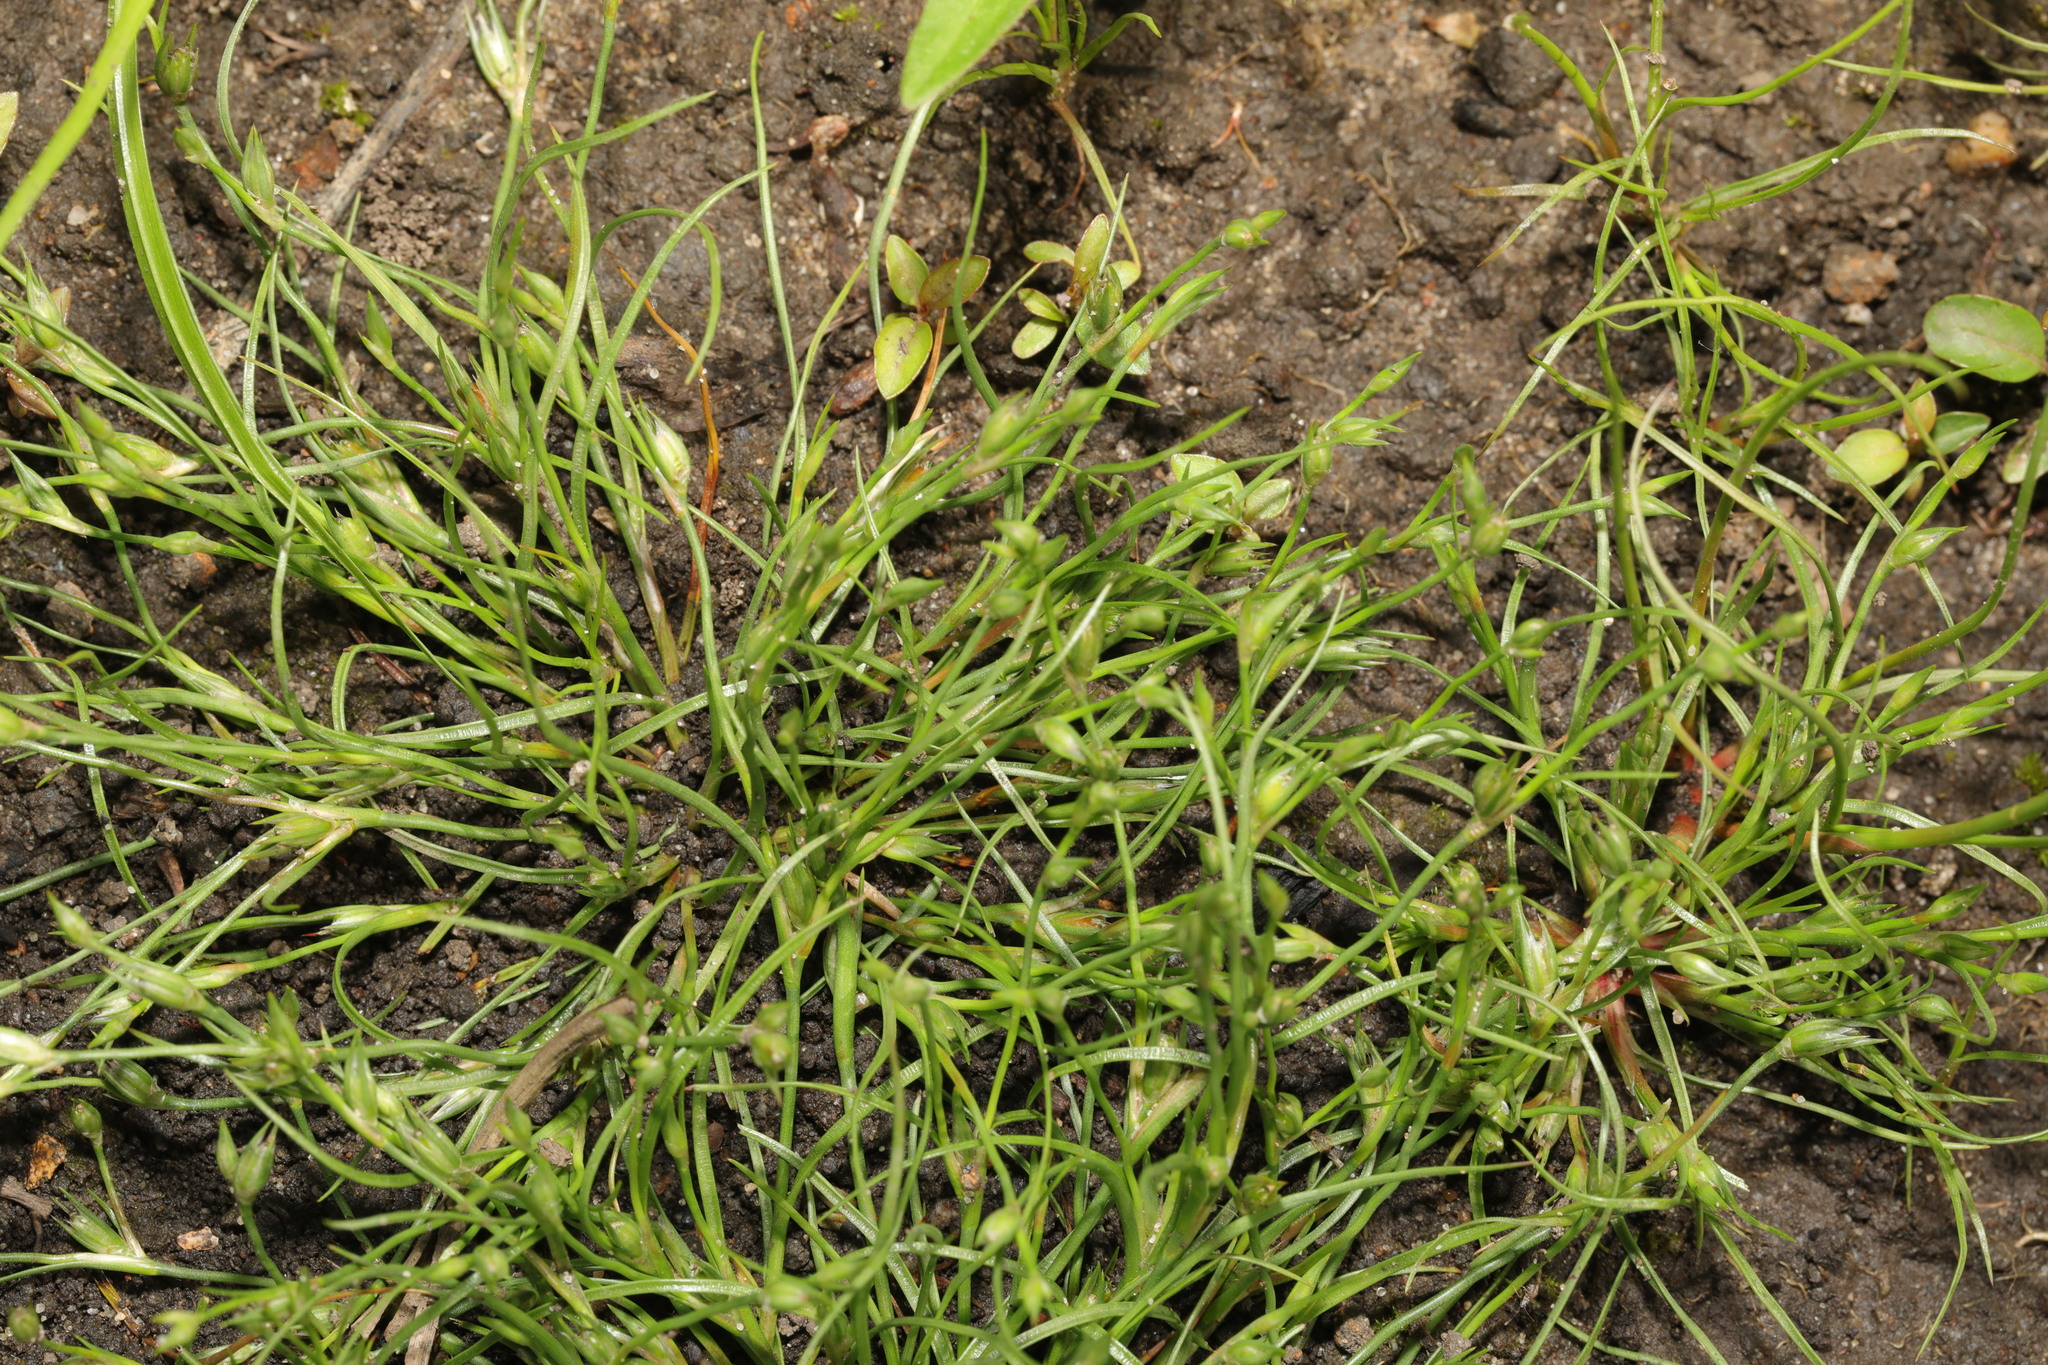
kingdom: Plantae
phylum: Tracheophyta
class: Liliopsida
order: Poales
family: Juncaceae
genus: Juncus
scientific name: Juncus bufonius
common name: Toad rush
